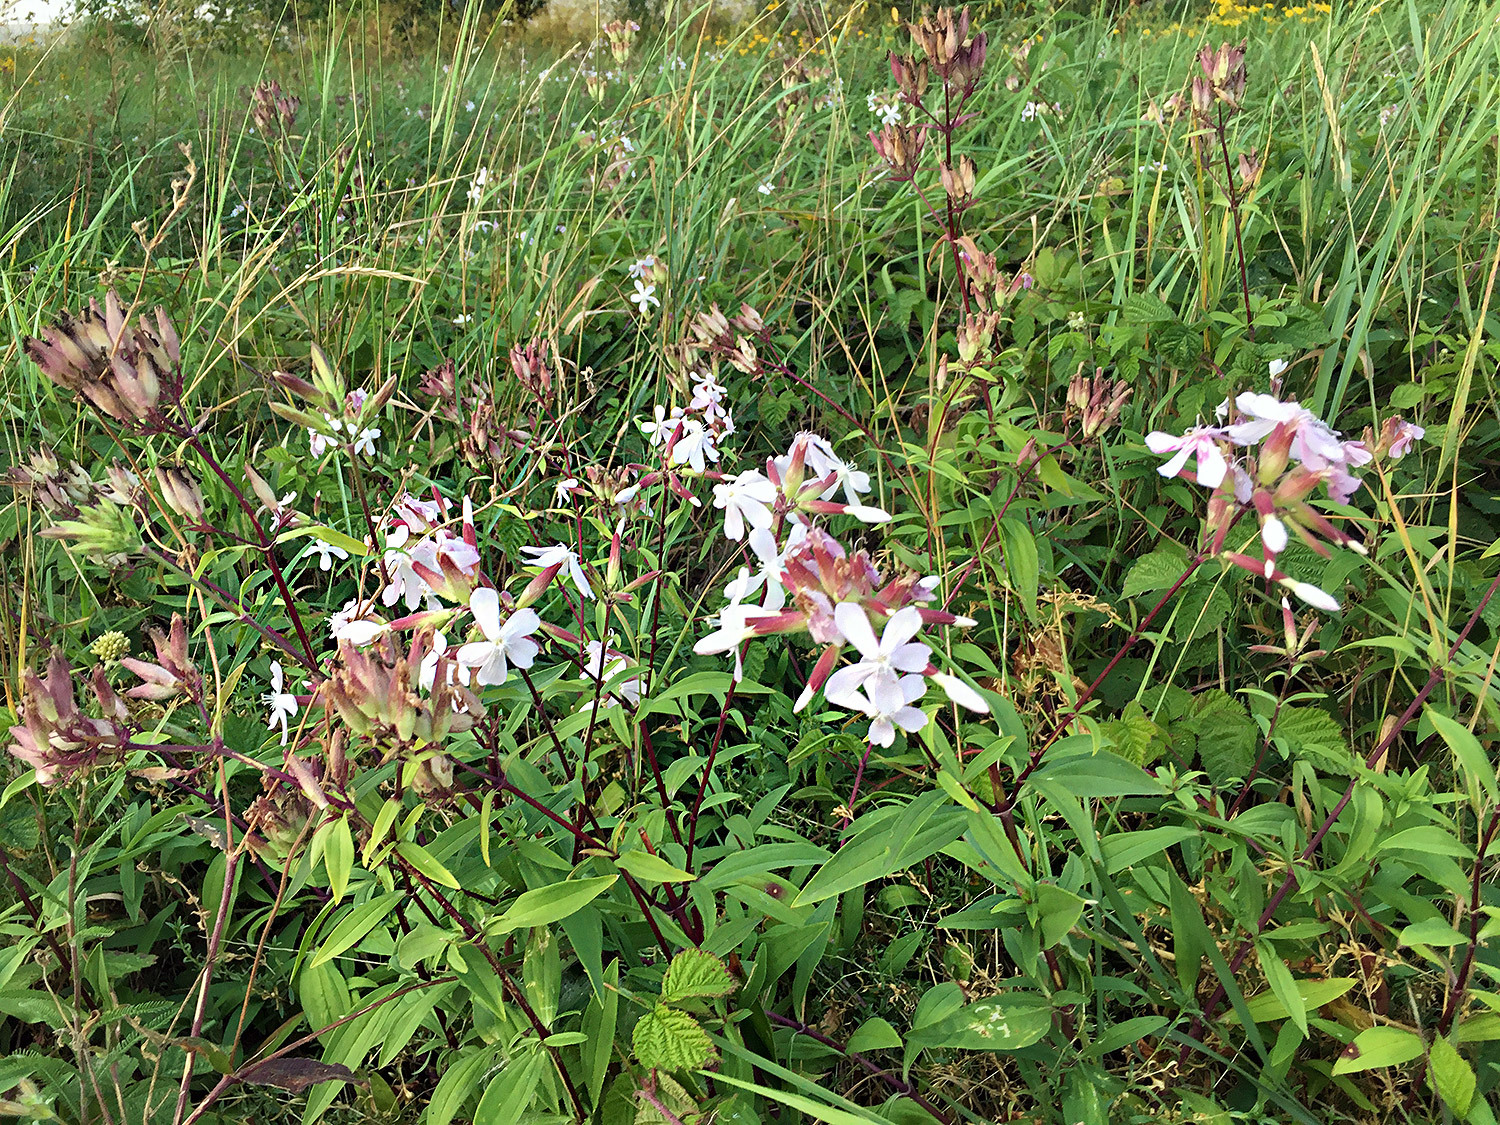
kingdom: Plantae
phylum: Tracheophyta
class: Magnoliopsida
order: Caryophyllales
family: Caryophyllaceae
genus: Saponaria
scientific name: Saponaria officinalis
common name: Soapwort
